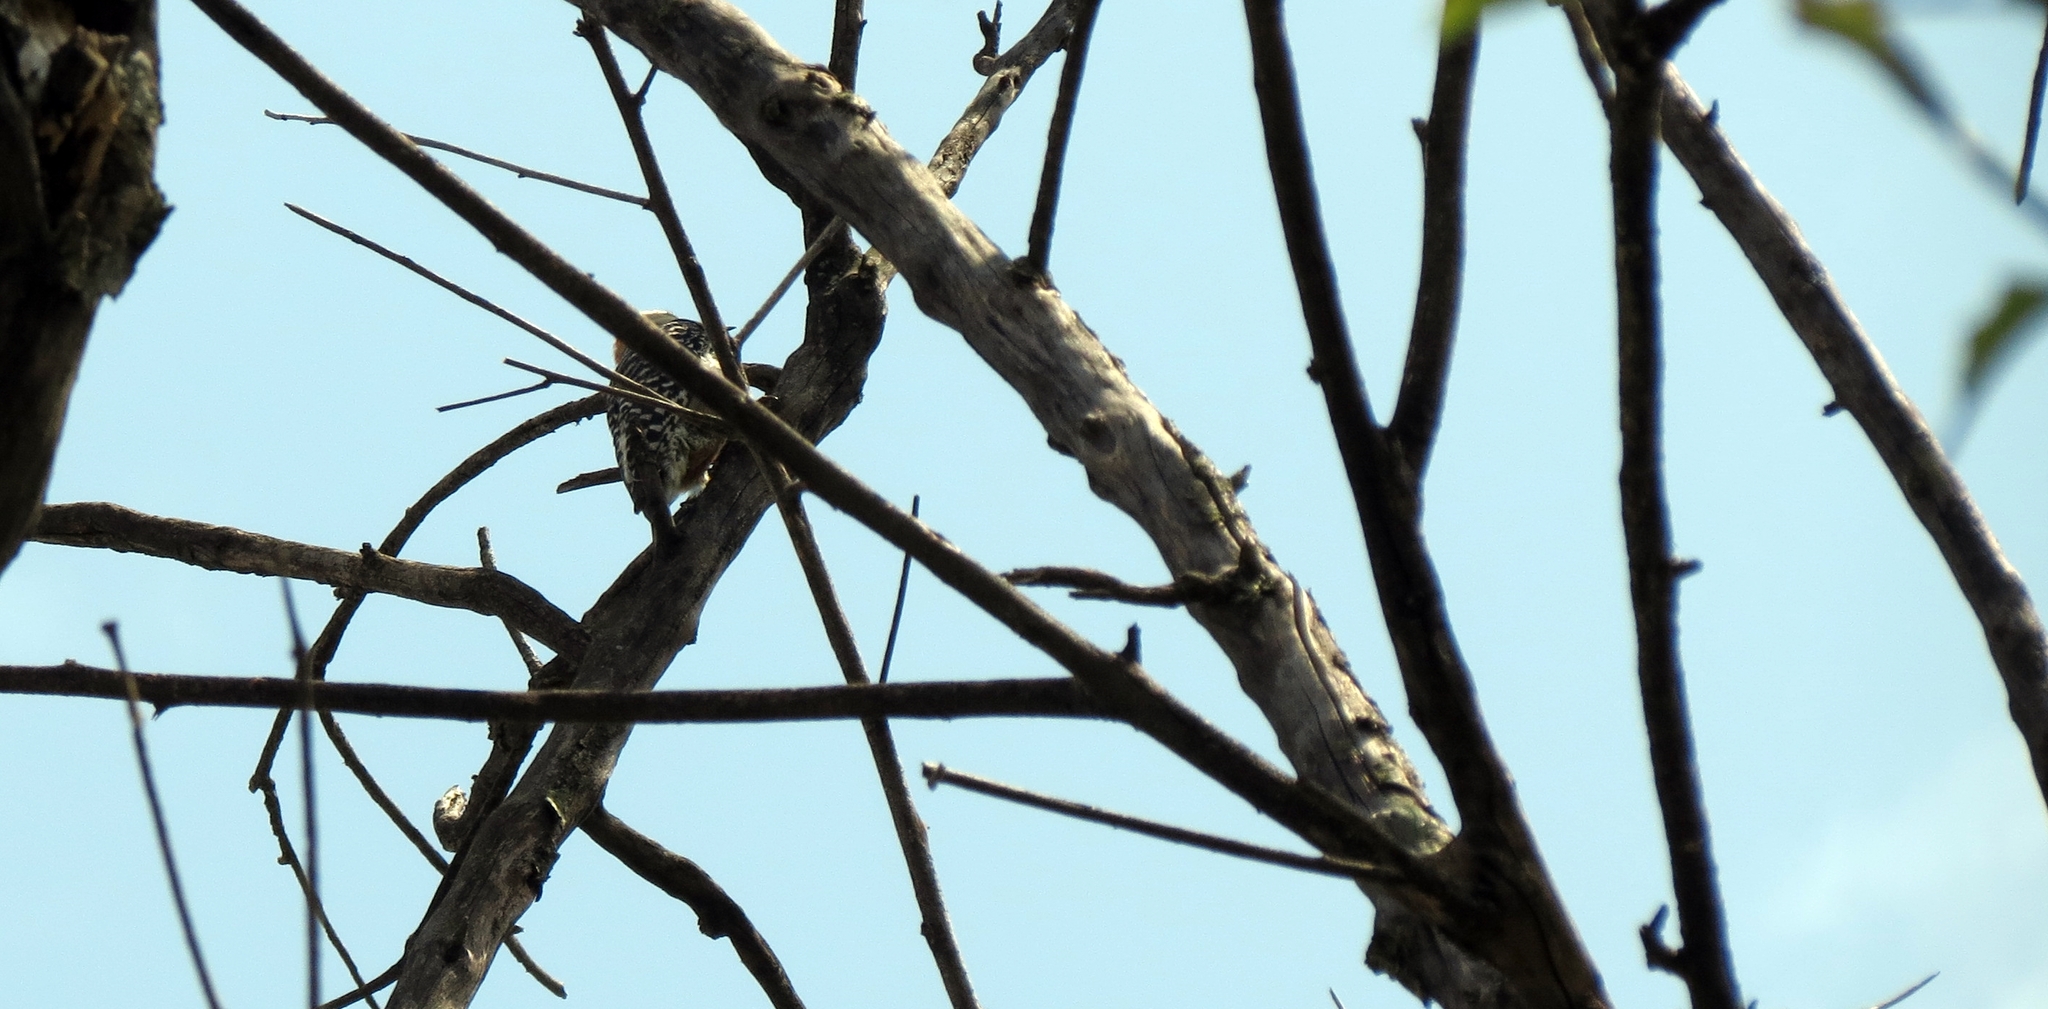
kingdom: Animalia
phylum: Chordata
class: Aves
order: Piciformes
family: Picidae
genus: Melanerpes
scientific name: Melanerpes rubricapillus
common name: Red-crowned woodpecker
